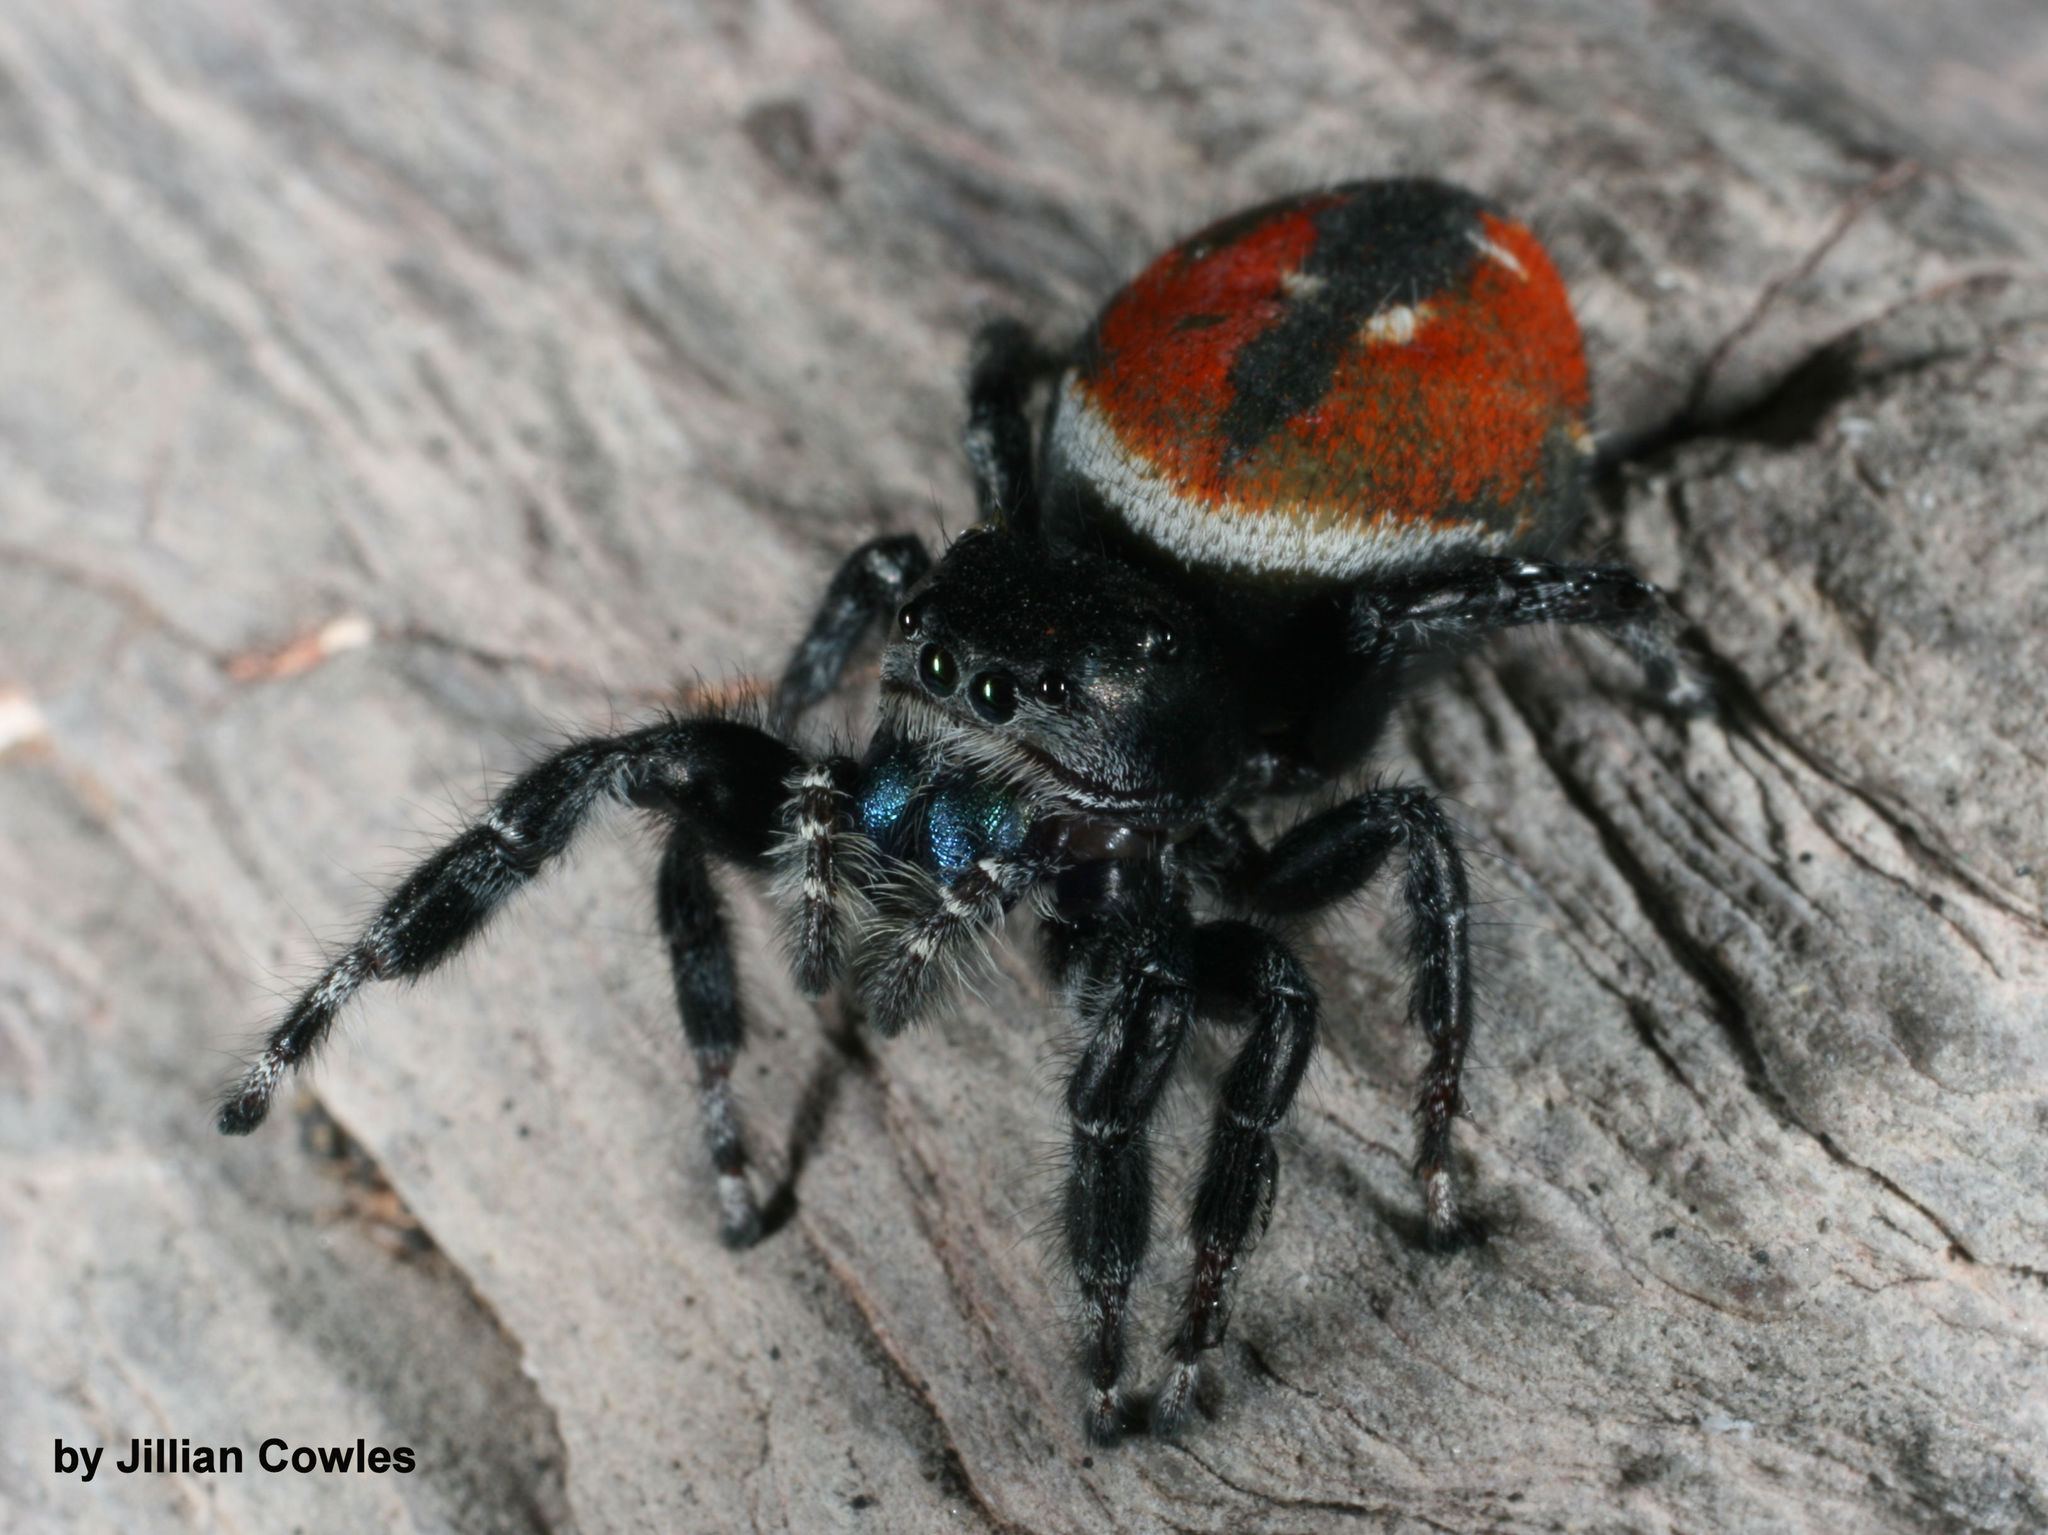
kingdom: Animalia
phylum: Arthropoda
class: Arachnida
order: Araneae
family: Salticidae
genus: Phidippus
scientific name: Phidippus carneus
